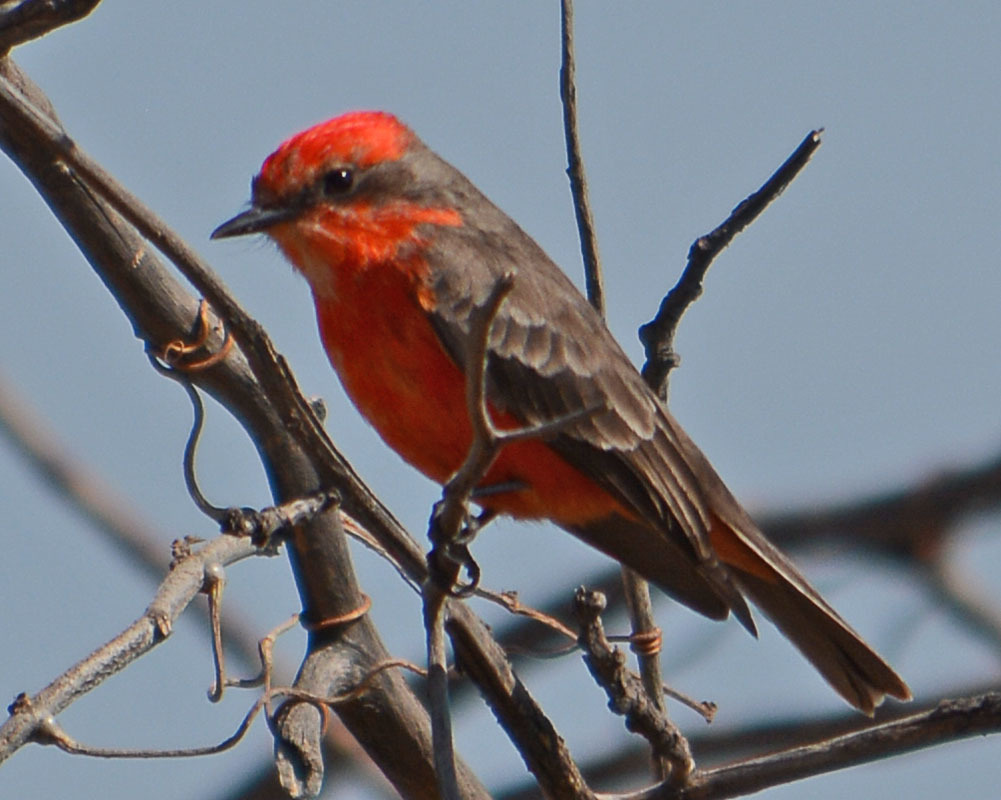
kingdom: Animalia
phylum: Chordata
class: Aves
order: Passeriformes
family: Tyrannidae
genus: Pyrocephalus
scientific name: Pyrocephalus rubinus
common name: Vermilion flycatcher
